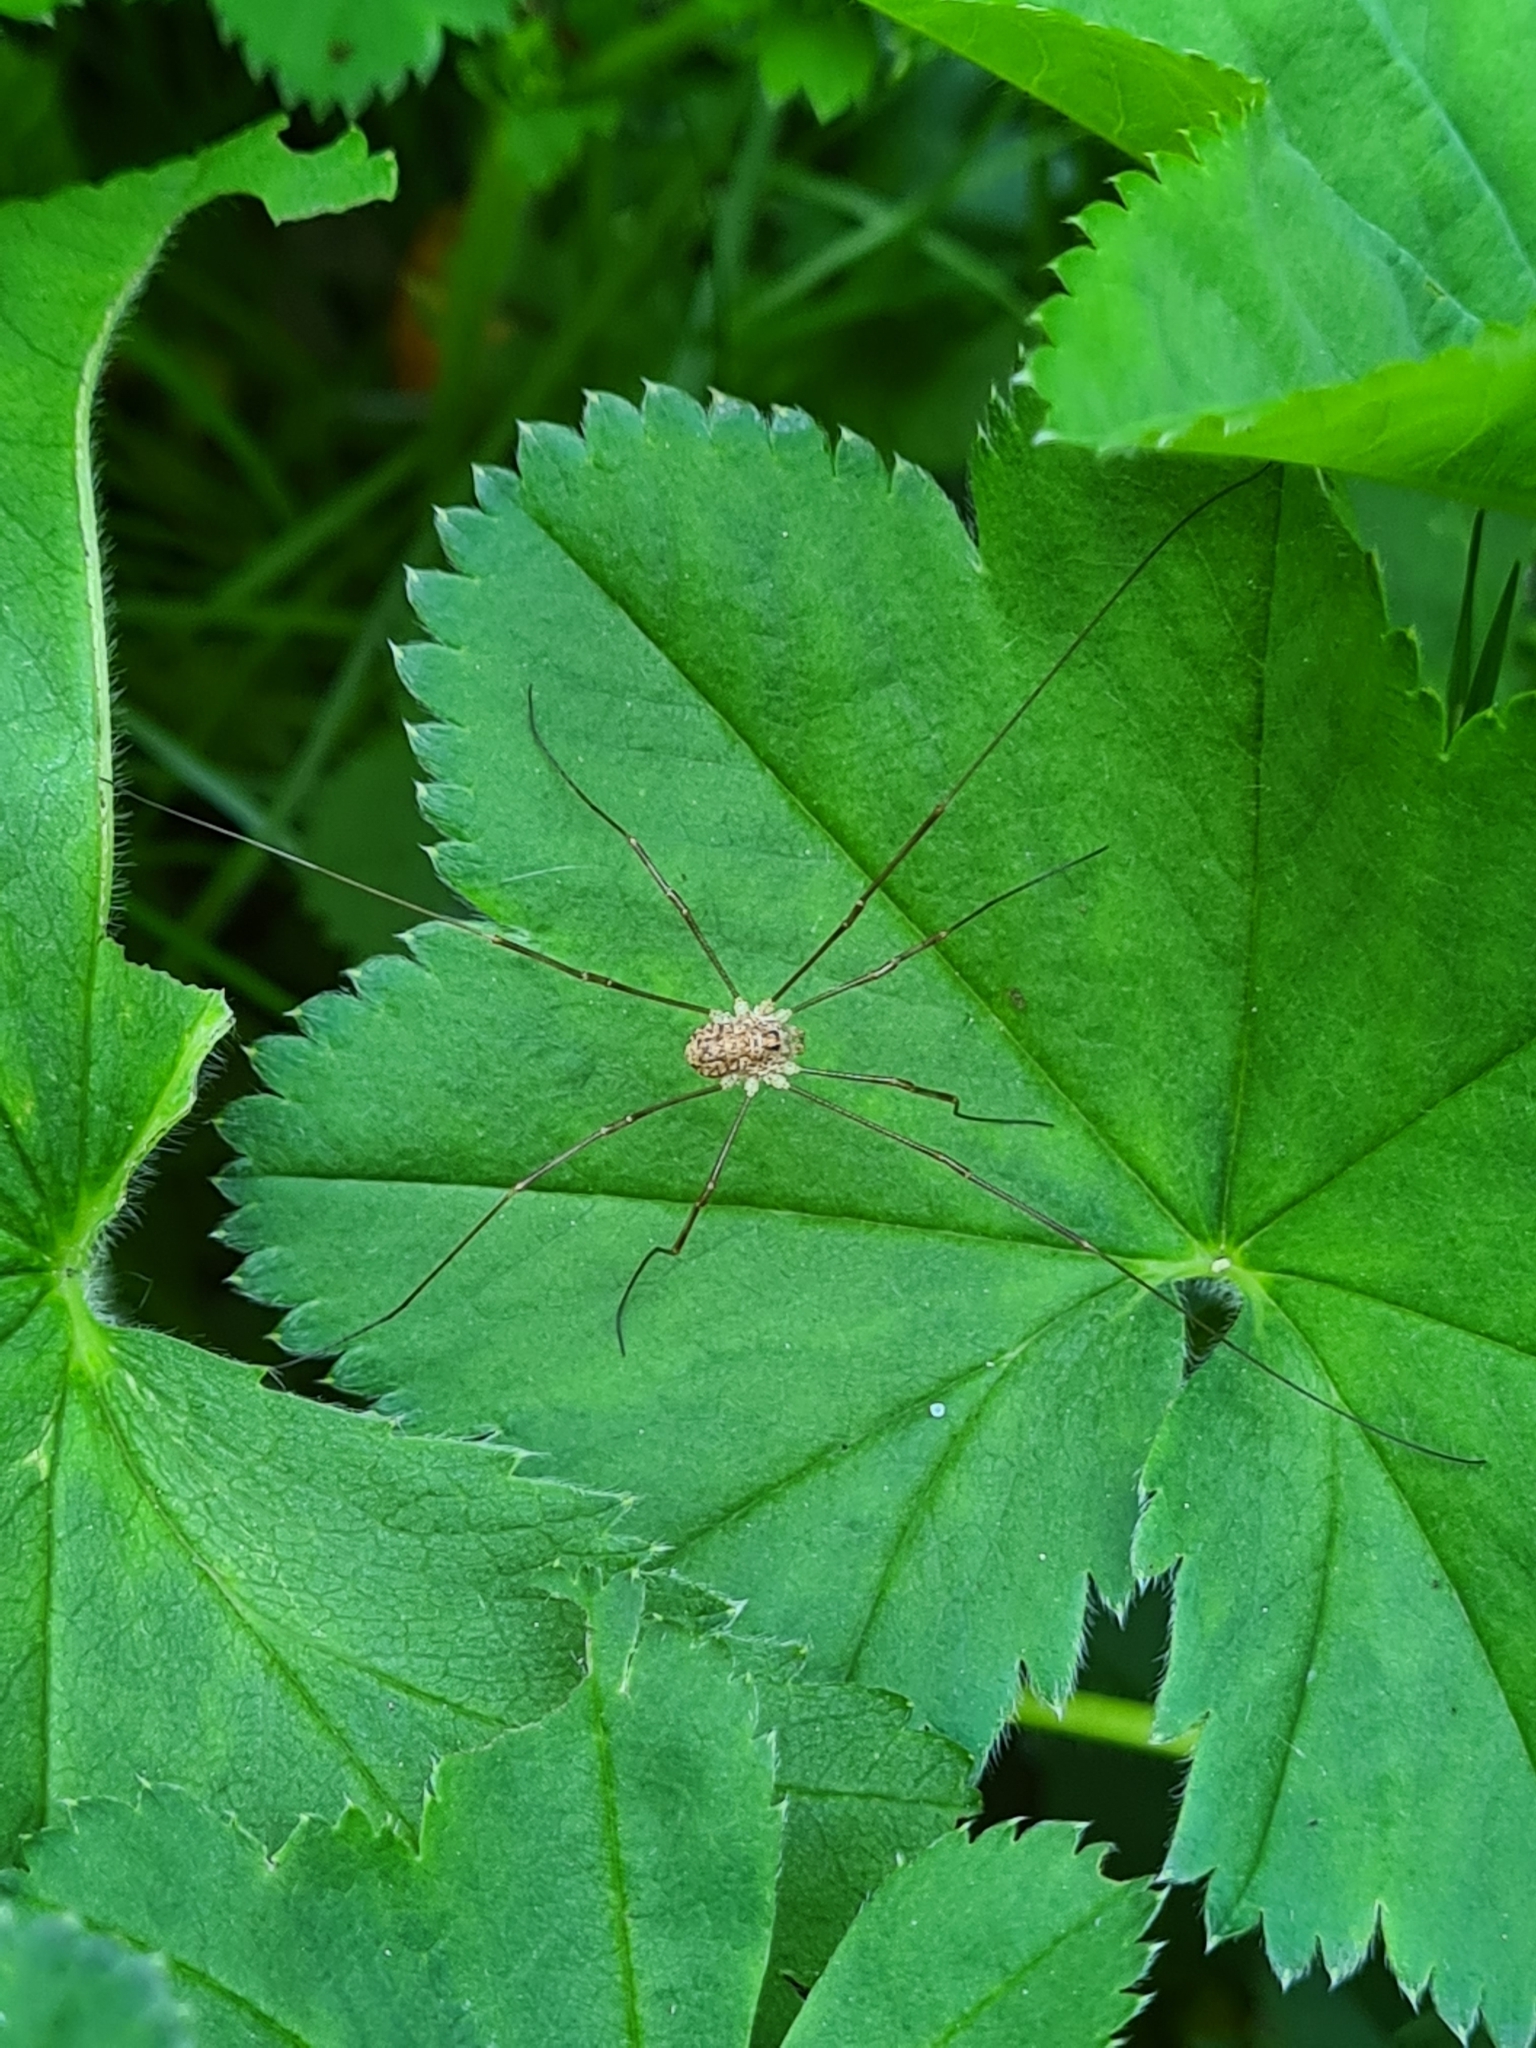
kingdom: Animalia
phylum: Arthropoda
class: Arachnida
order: Opiliones
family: Phalangiidae
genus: Rilaena
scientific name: Rilaena triangularis
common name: Spring harvestman
